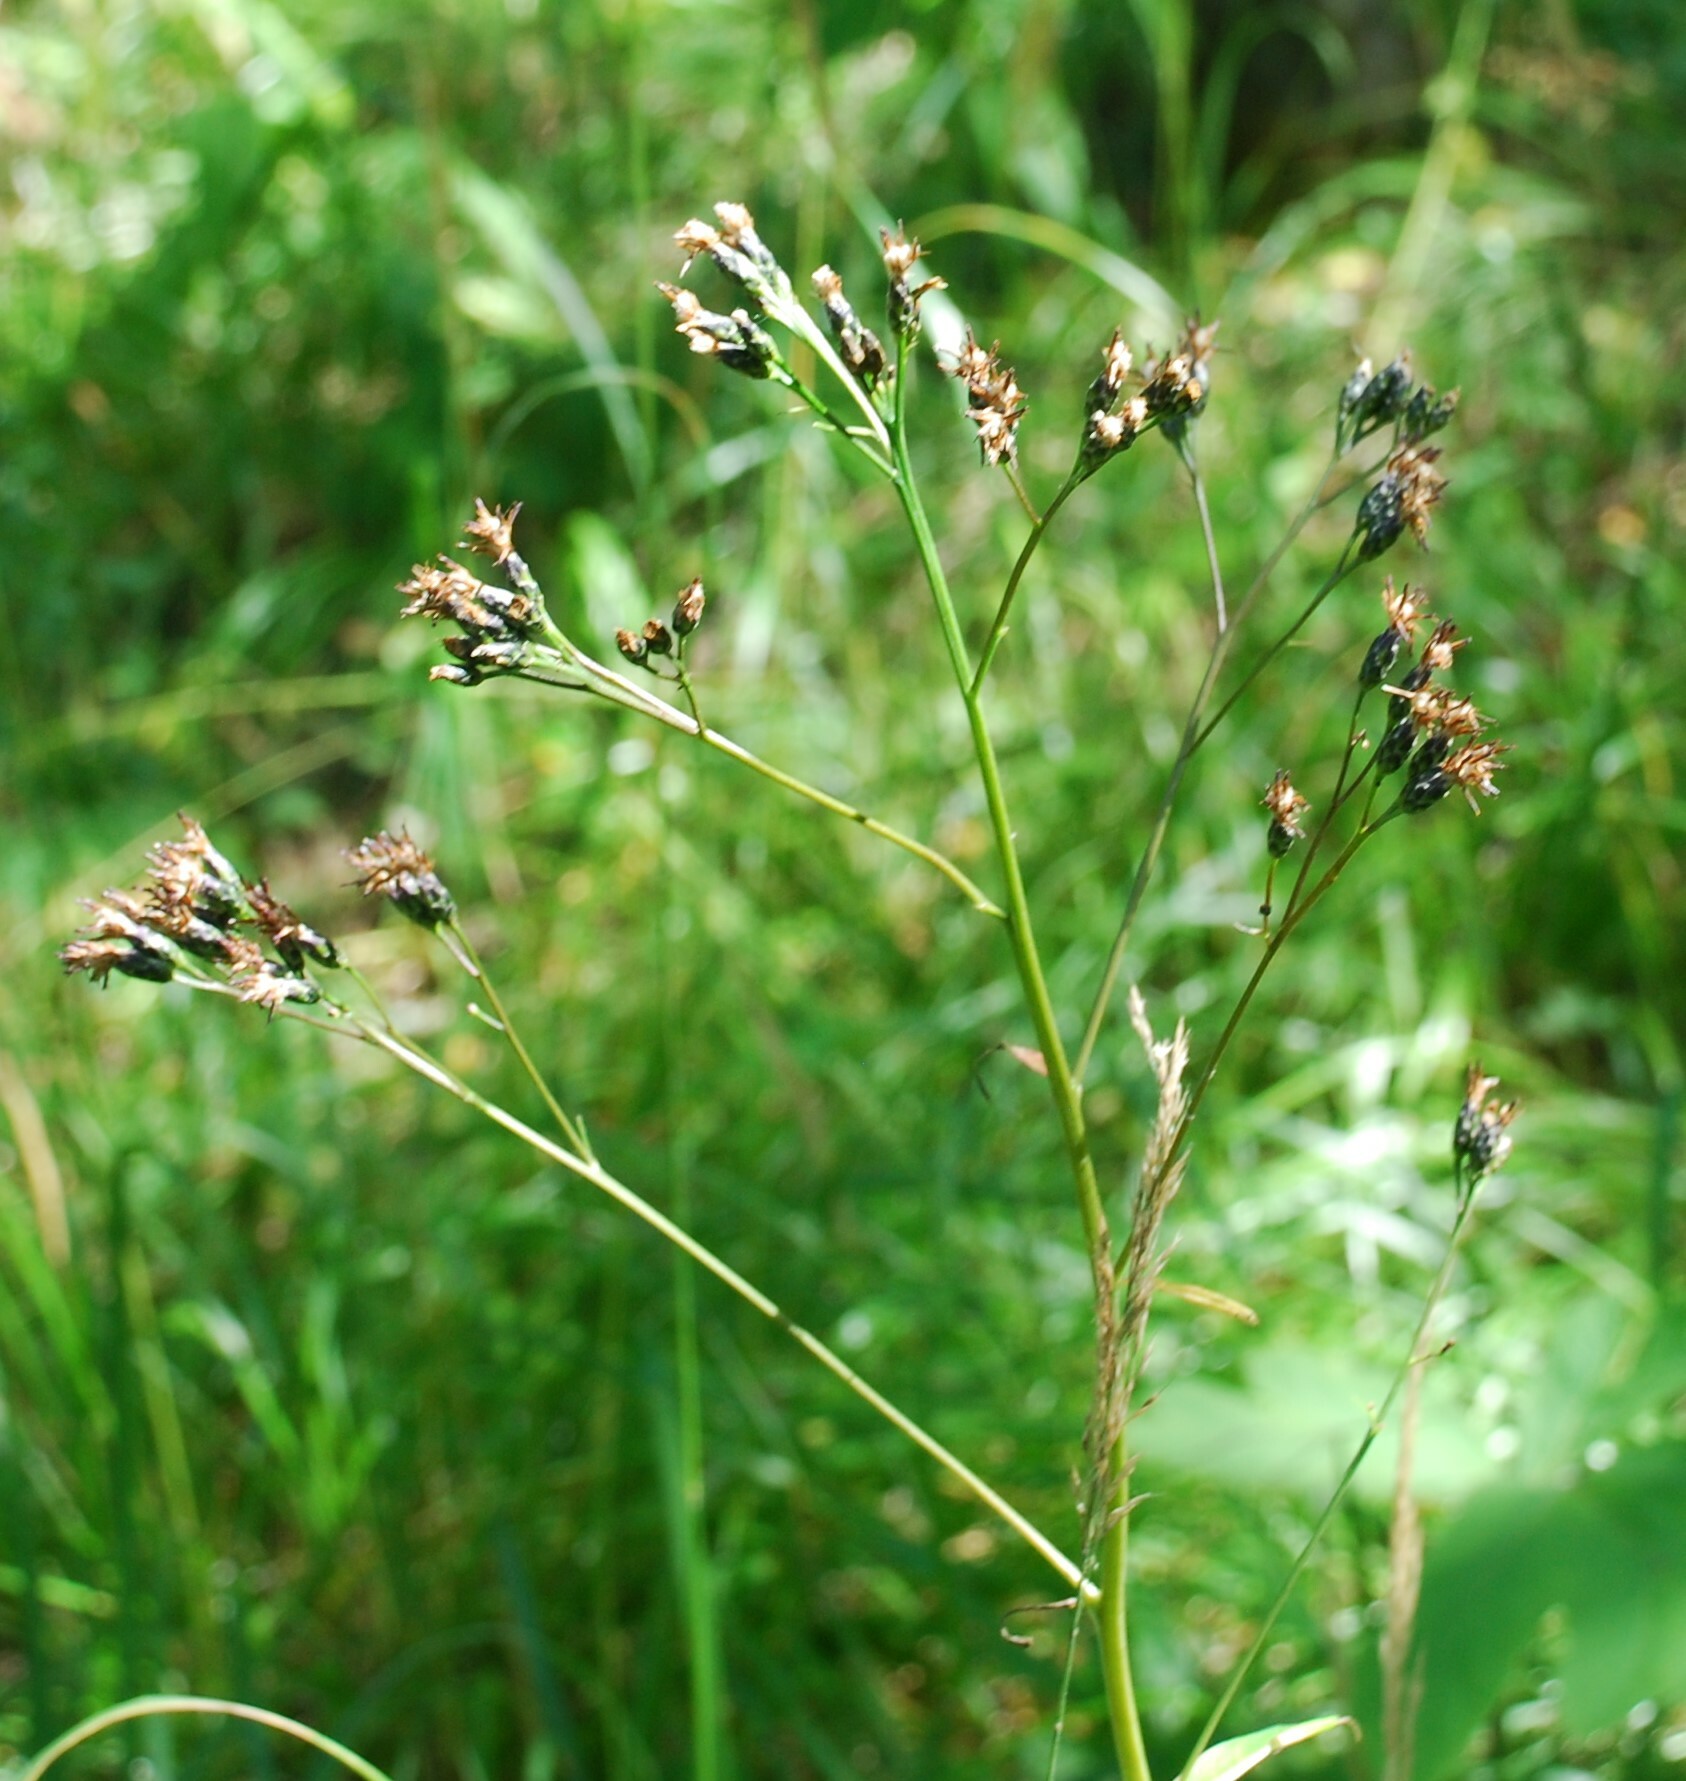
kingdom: Plantae
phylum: Tracheophyta
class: Magnoliopsida
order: Asterales
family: Asteraceae
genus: Saussurea
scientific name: Saussurea parviflora
